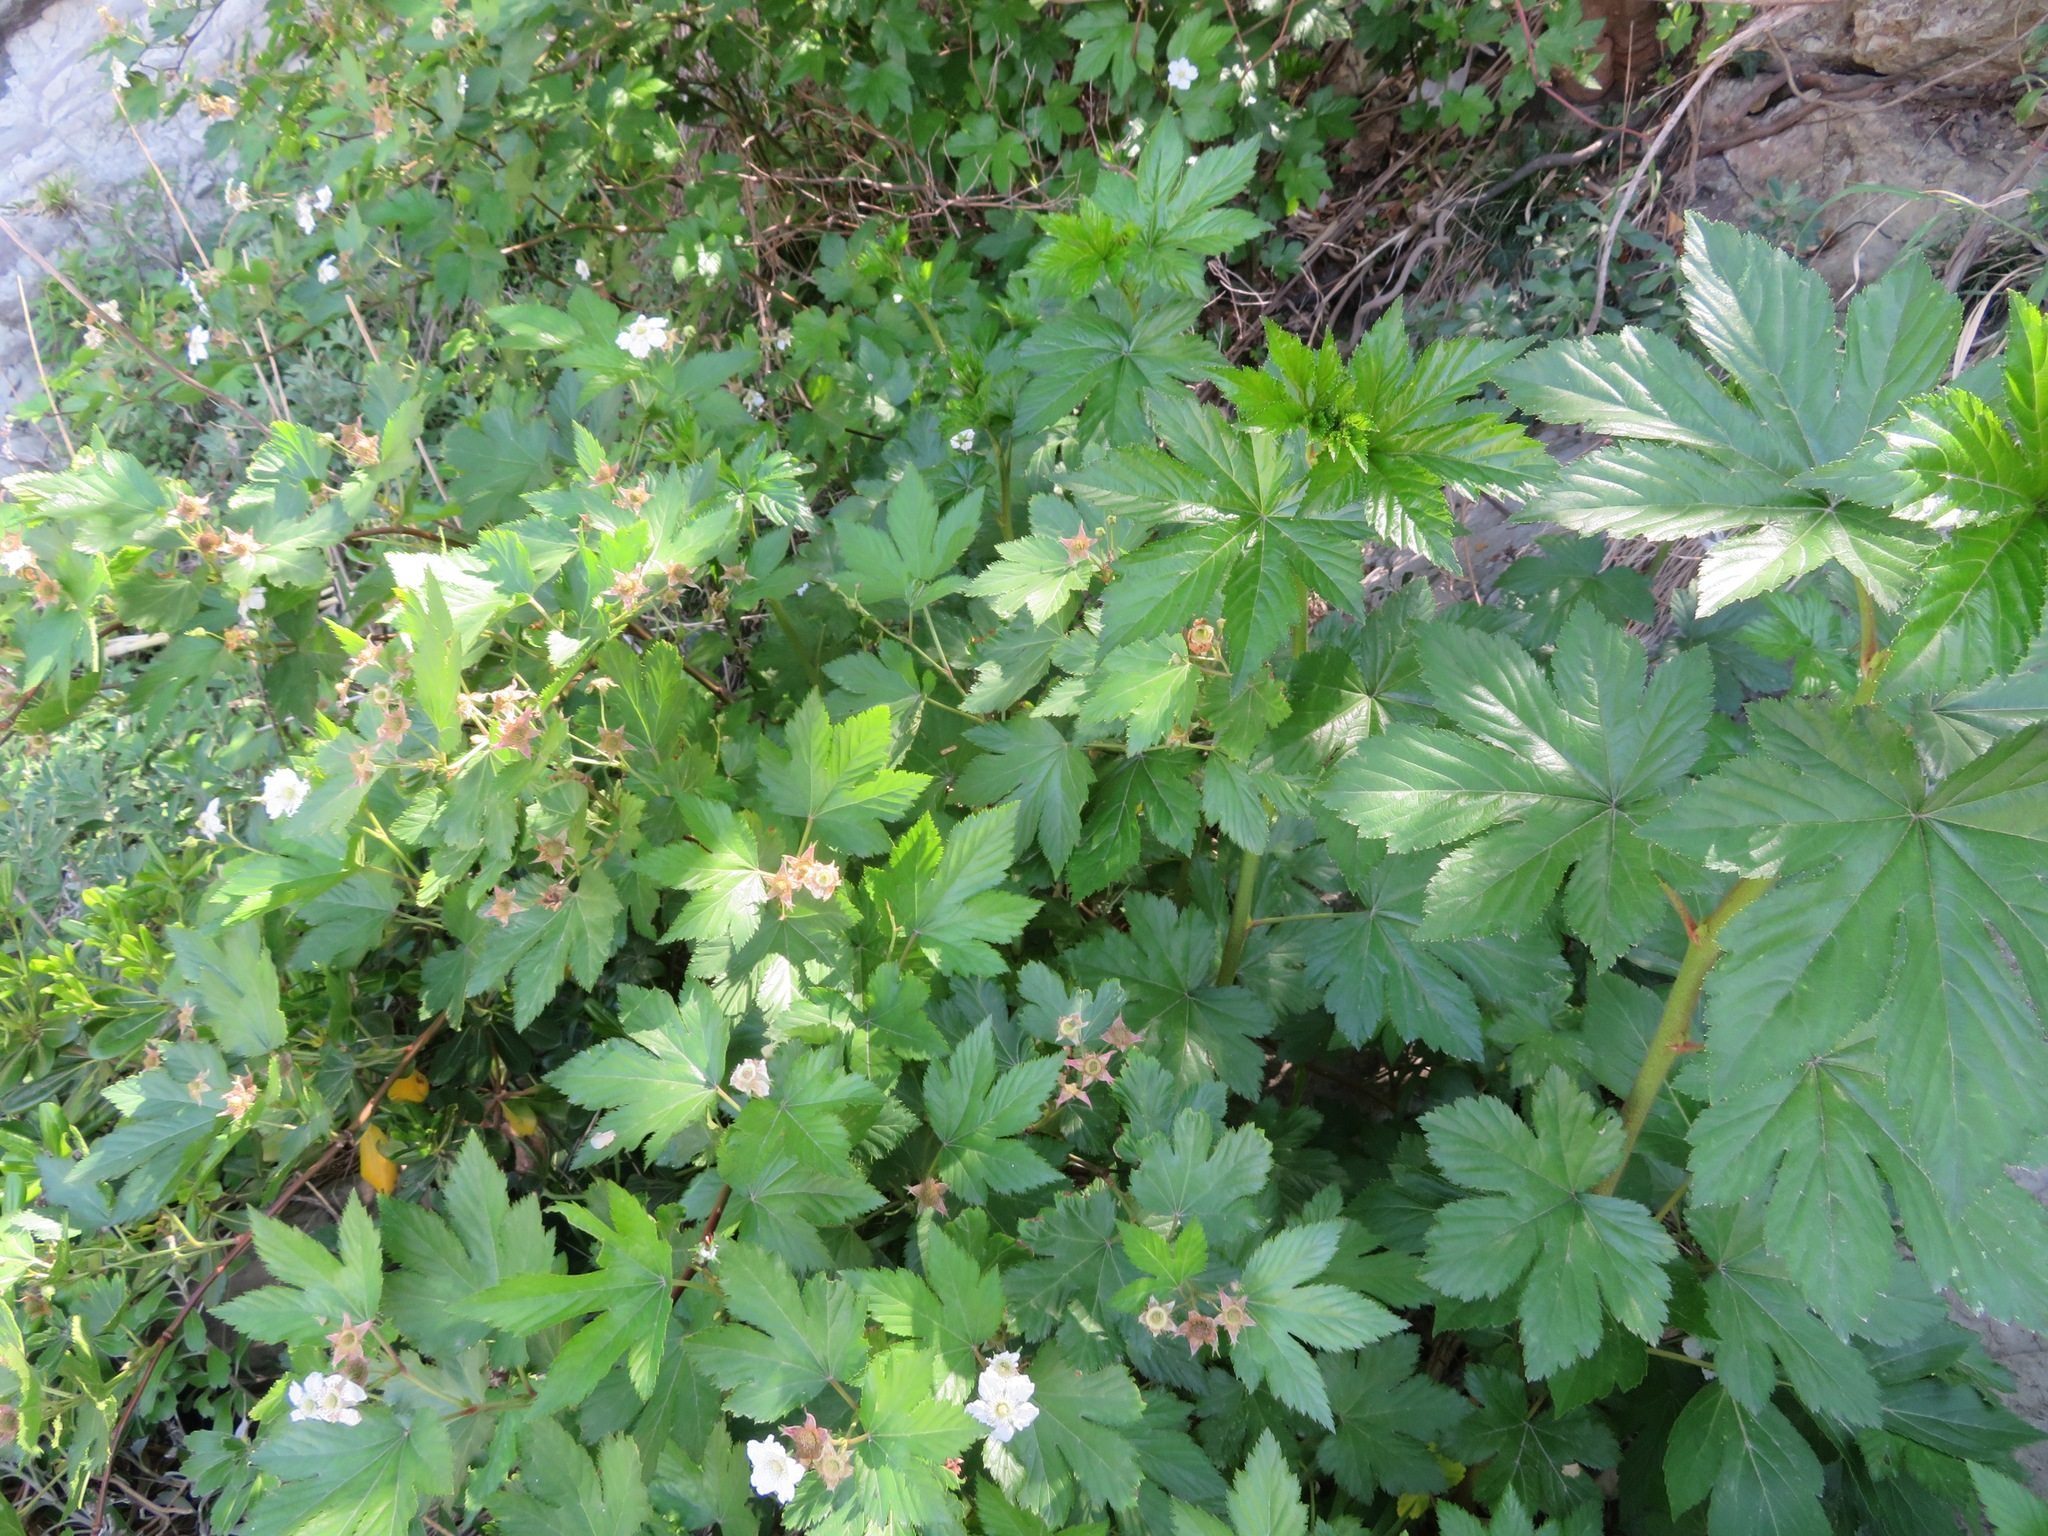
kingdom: Plantae
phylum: Tracheophyta
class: Magnoliopsida
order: Rosales
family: Rosaceae
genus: Rubus
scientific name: Rubus trifidus
